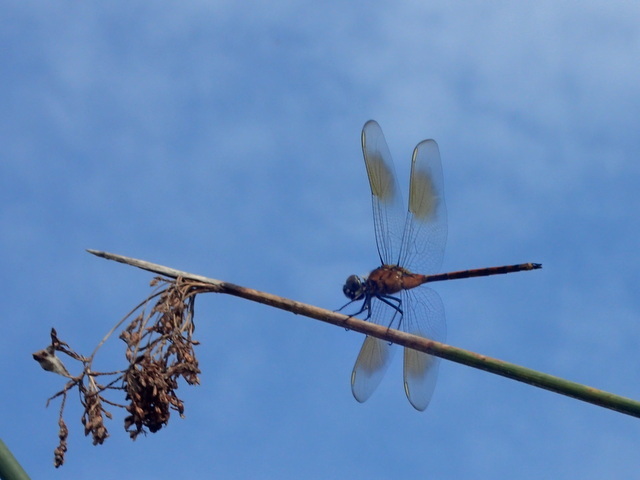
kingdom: Animalia
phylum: Arthropoda
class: Insecta
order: Odonata
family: Libellulidae
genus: Brachymesia
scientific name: Brachymesia gravida
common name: Four-spotted pennant
